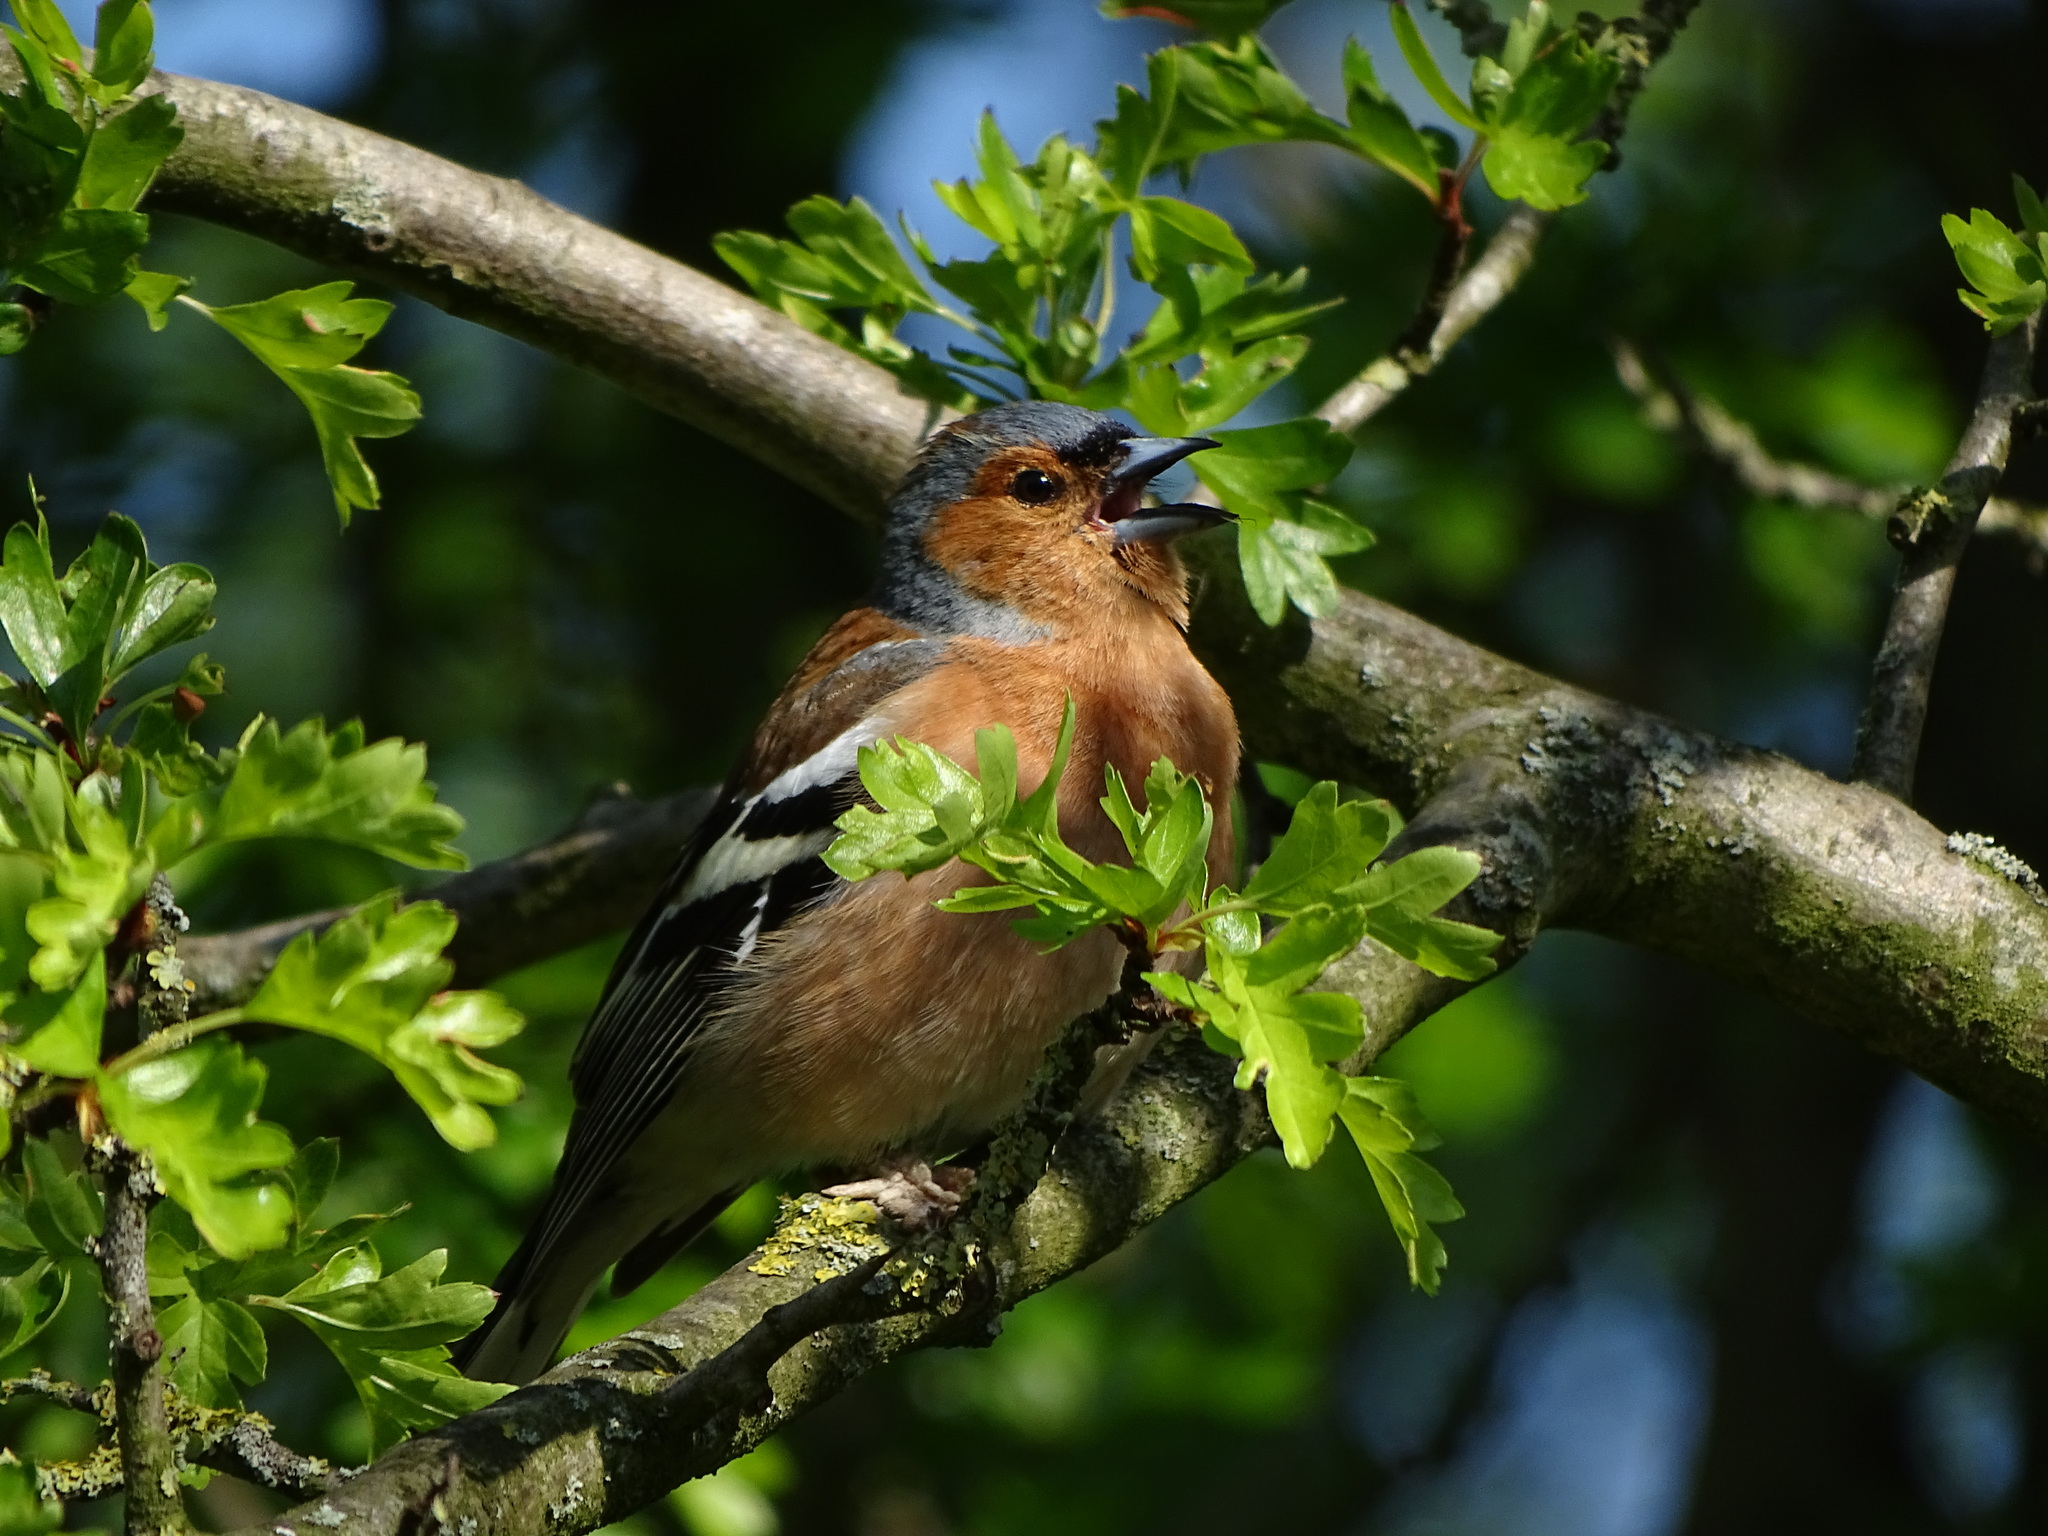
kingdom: Animalia
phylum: Chordata
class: Aves
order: Passeriformes
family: Fringillidae
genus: Fringilla
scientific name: Fringilla coelebs
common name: Common chaffinch
